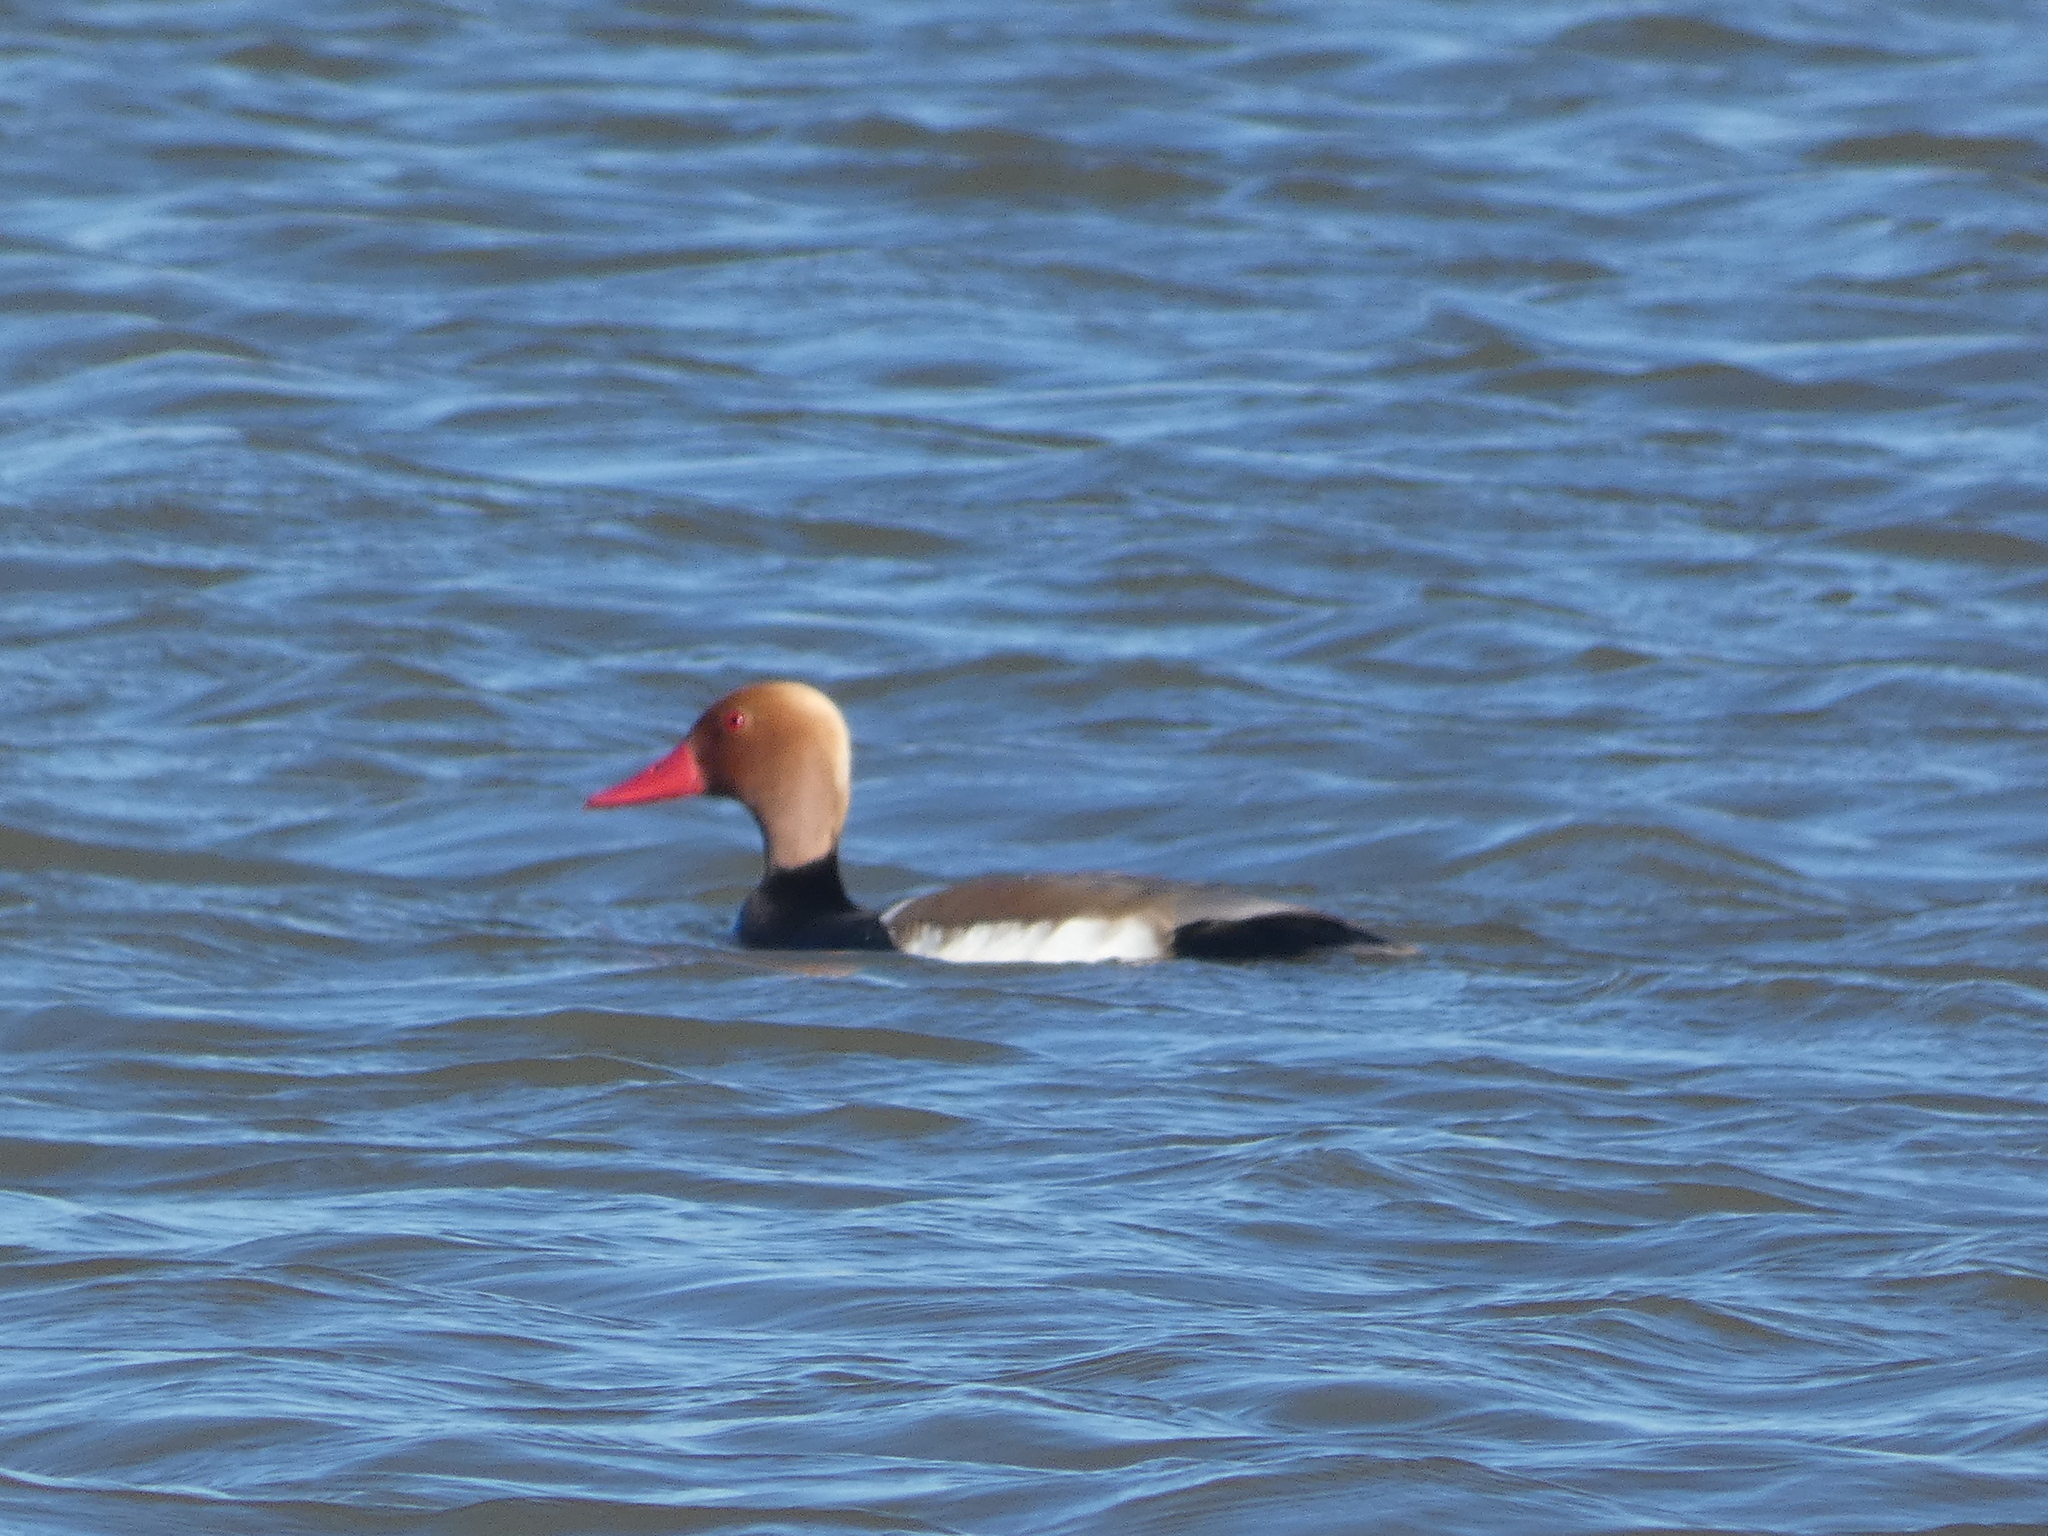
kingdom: Animalia
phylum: Chordata
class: Aves
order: Anseriformes
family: Anatidae
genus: Netta
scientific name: Netta rufina
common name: Red-crested pochard
